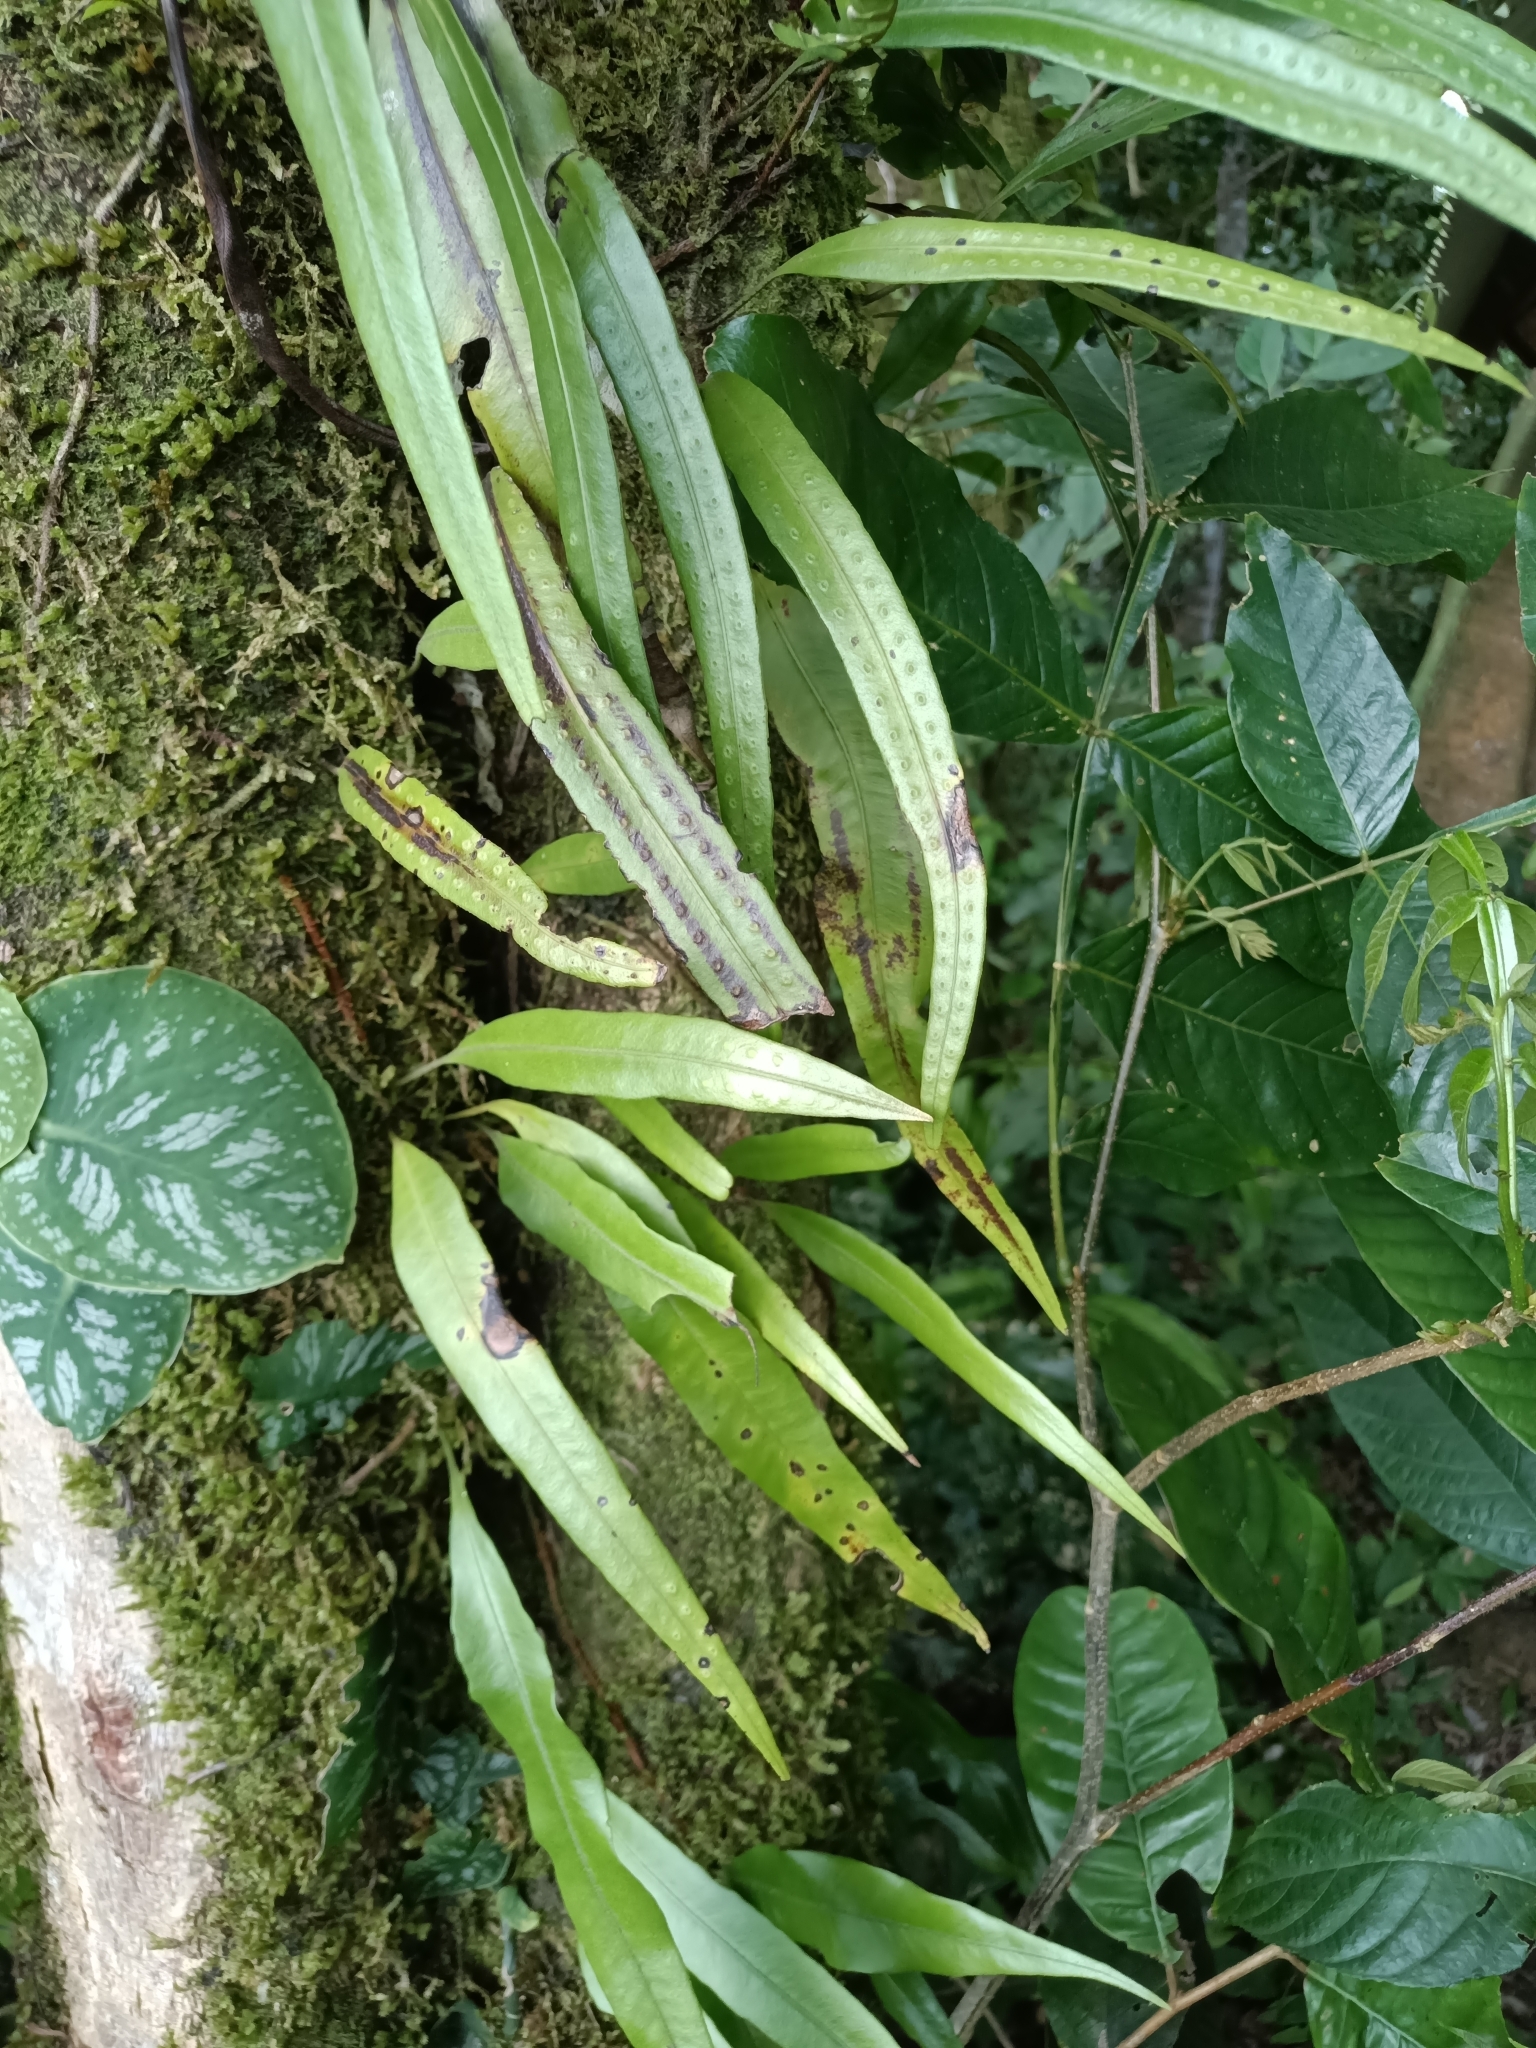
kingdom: Plantae
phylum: Tracheophyta
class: Polypodiopsida
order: Polypodiales
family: Polypodiaceae
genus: Microgramma
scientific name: Microgramma percussa
